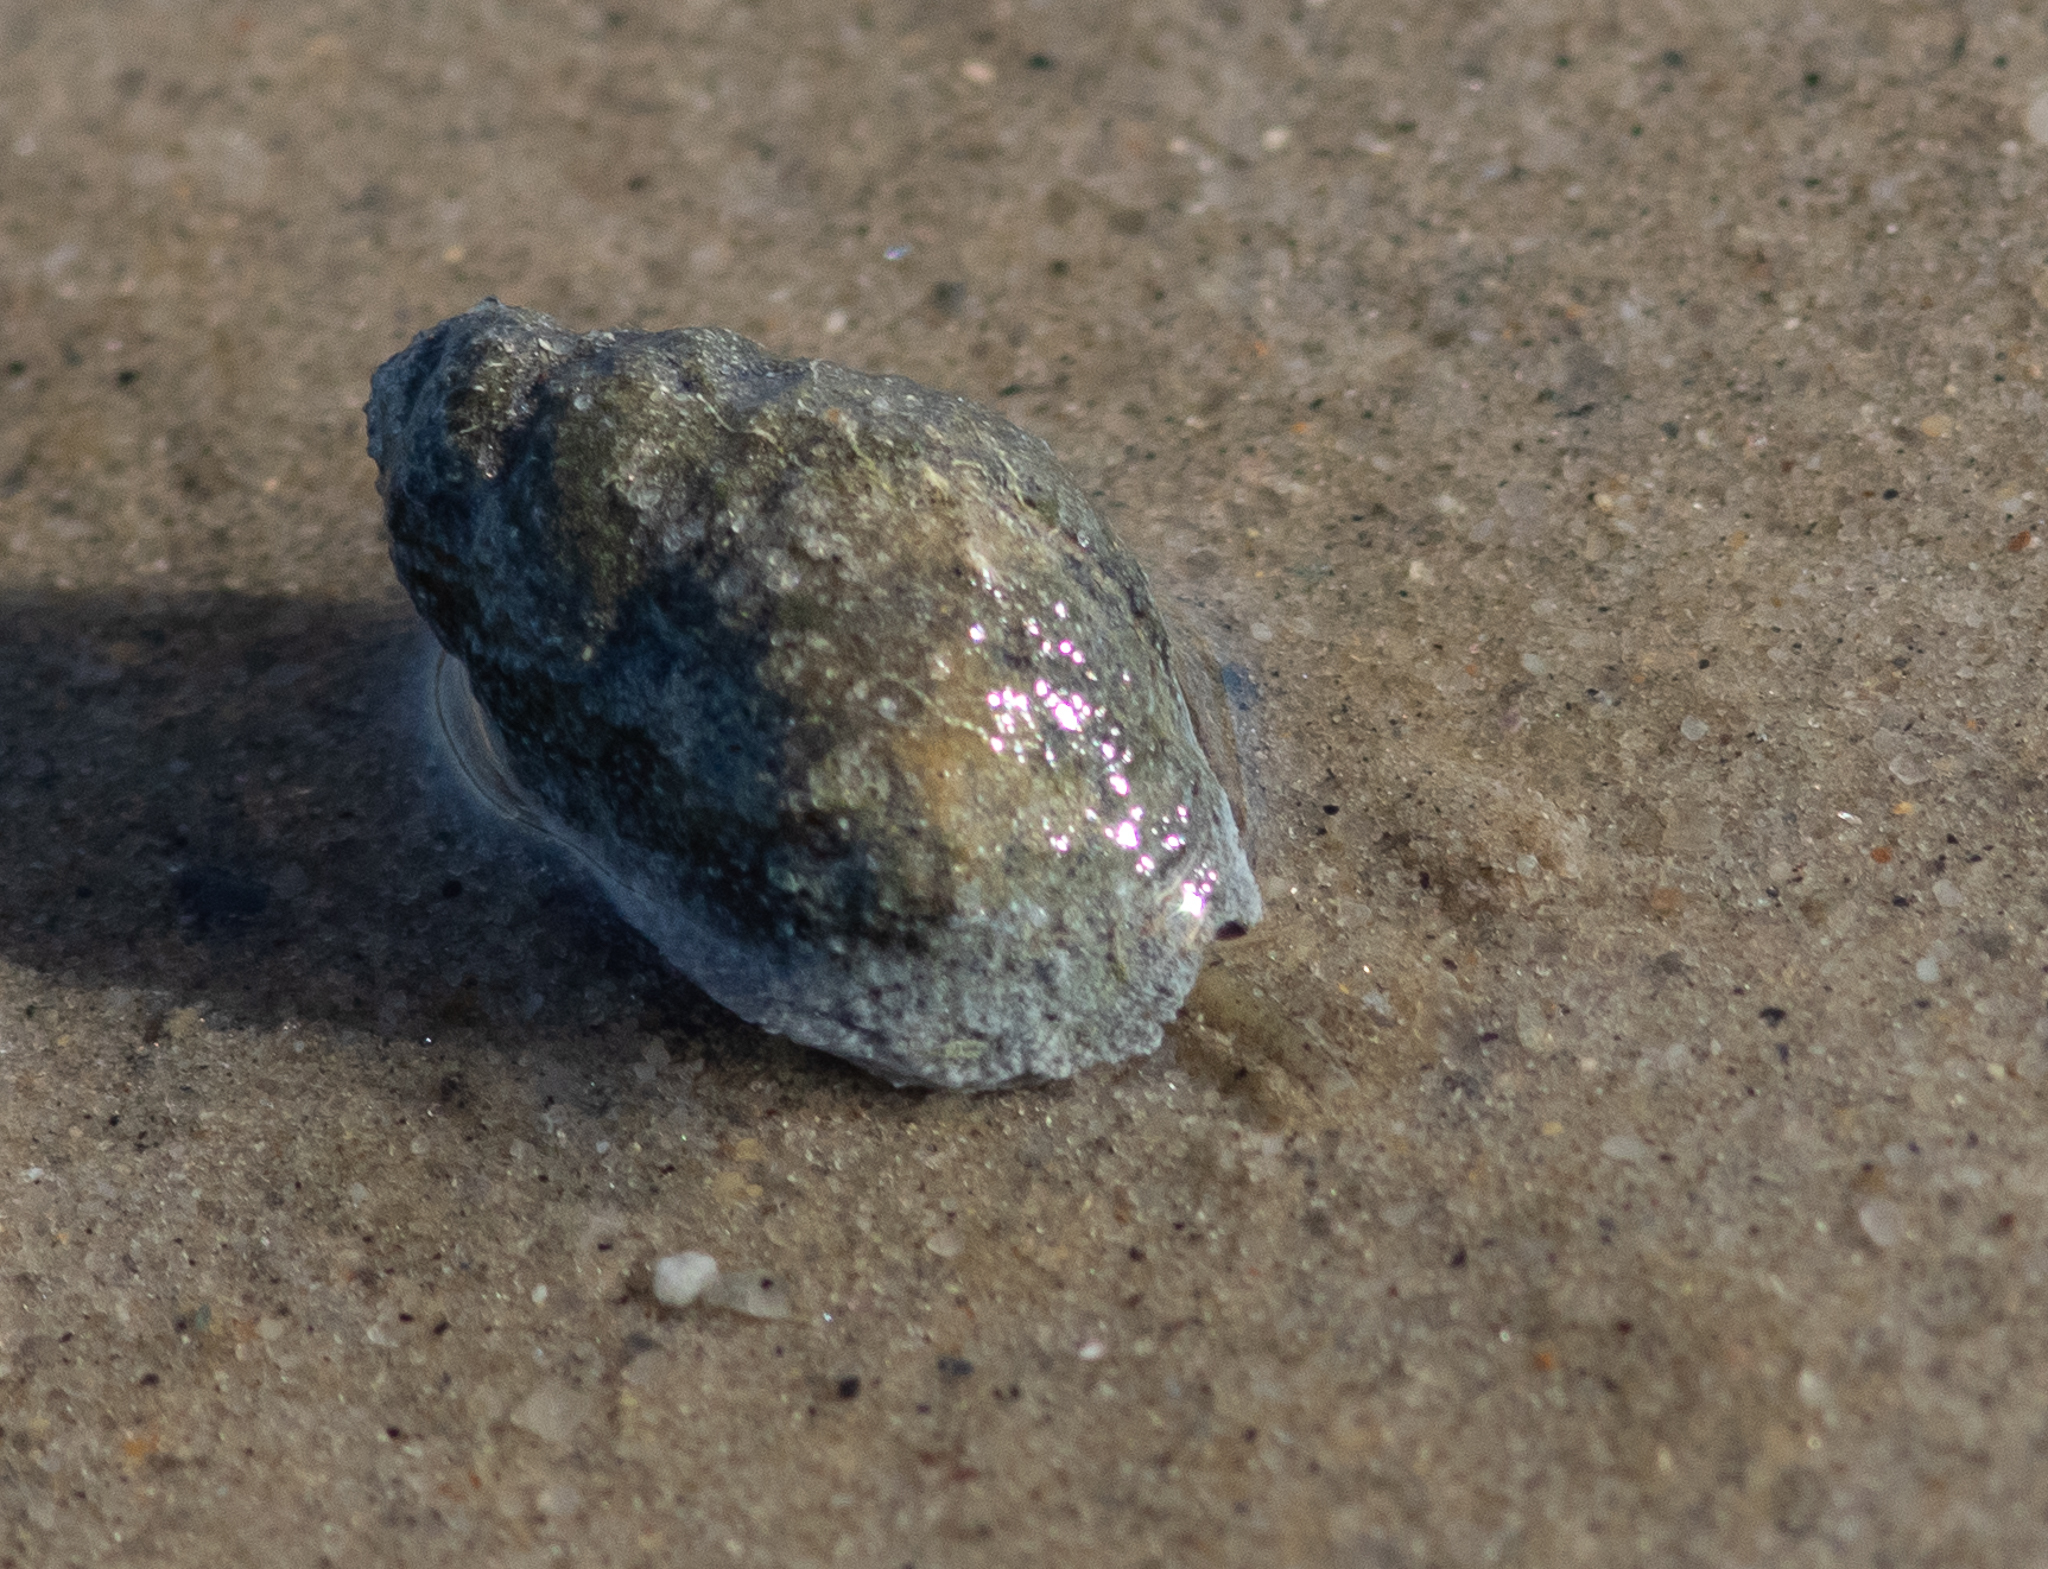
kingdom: Animalia
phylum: Mollusca
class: Gastropoda
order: Neogastropoda
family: Nassariidae
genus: Ilyanassa
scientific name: Ilyanassa obsoleta
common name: Eastern mudsnail
